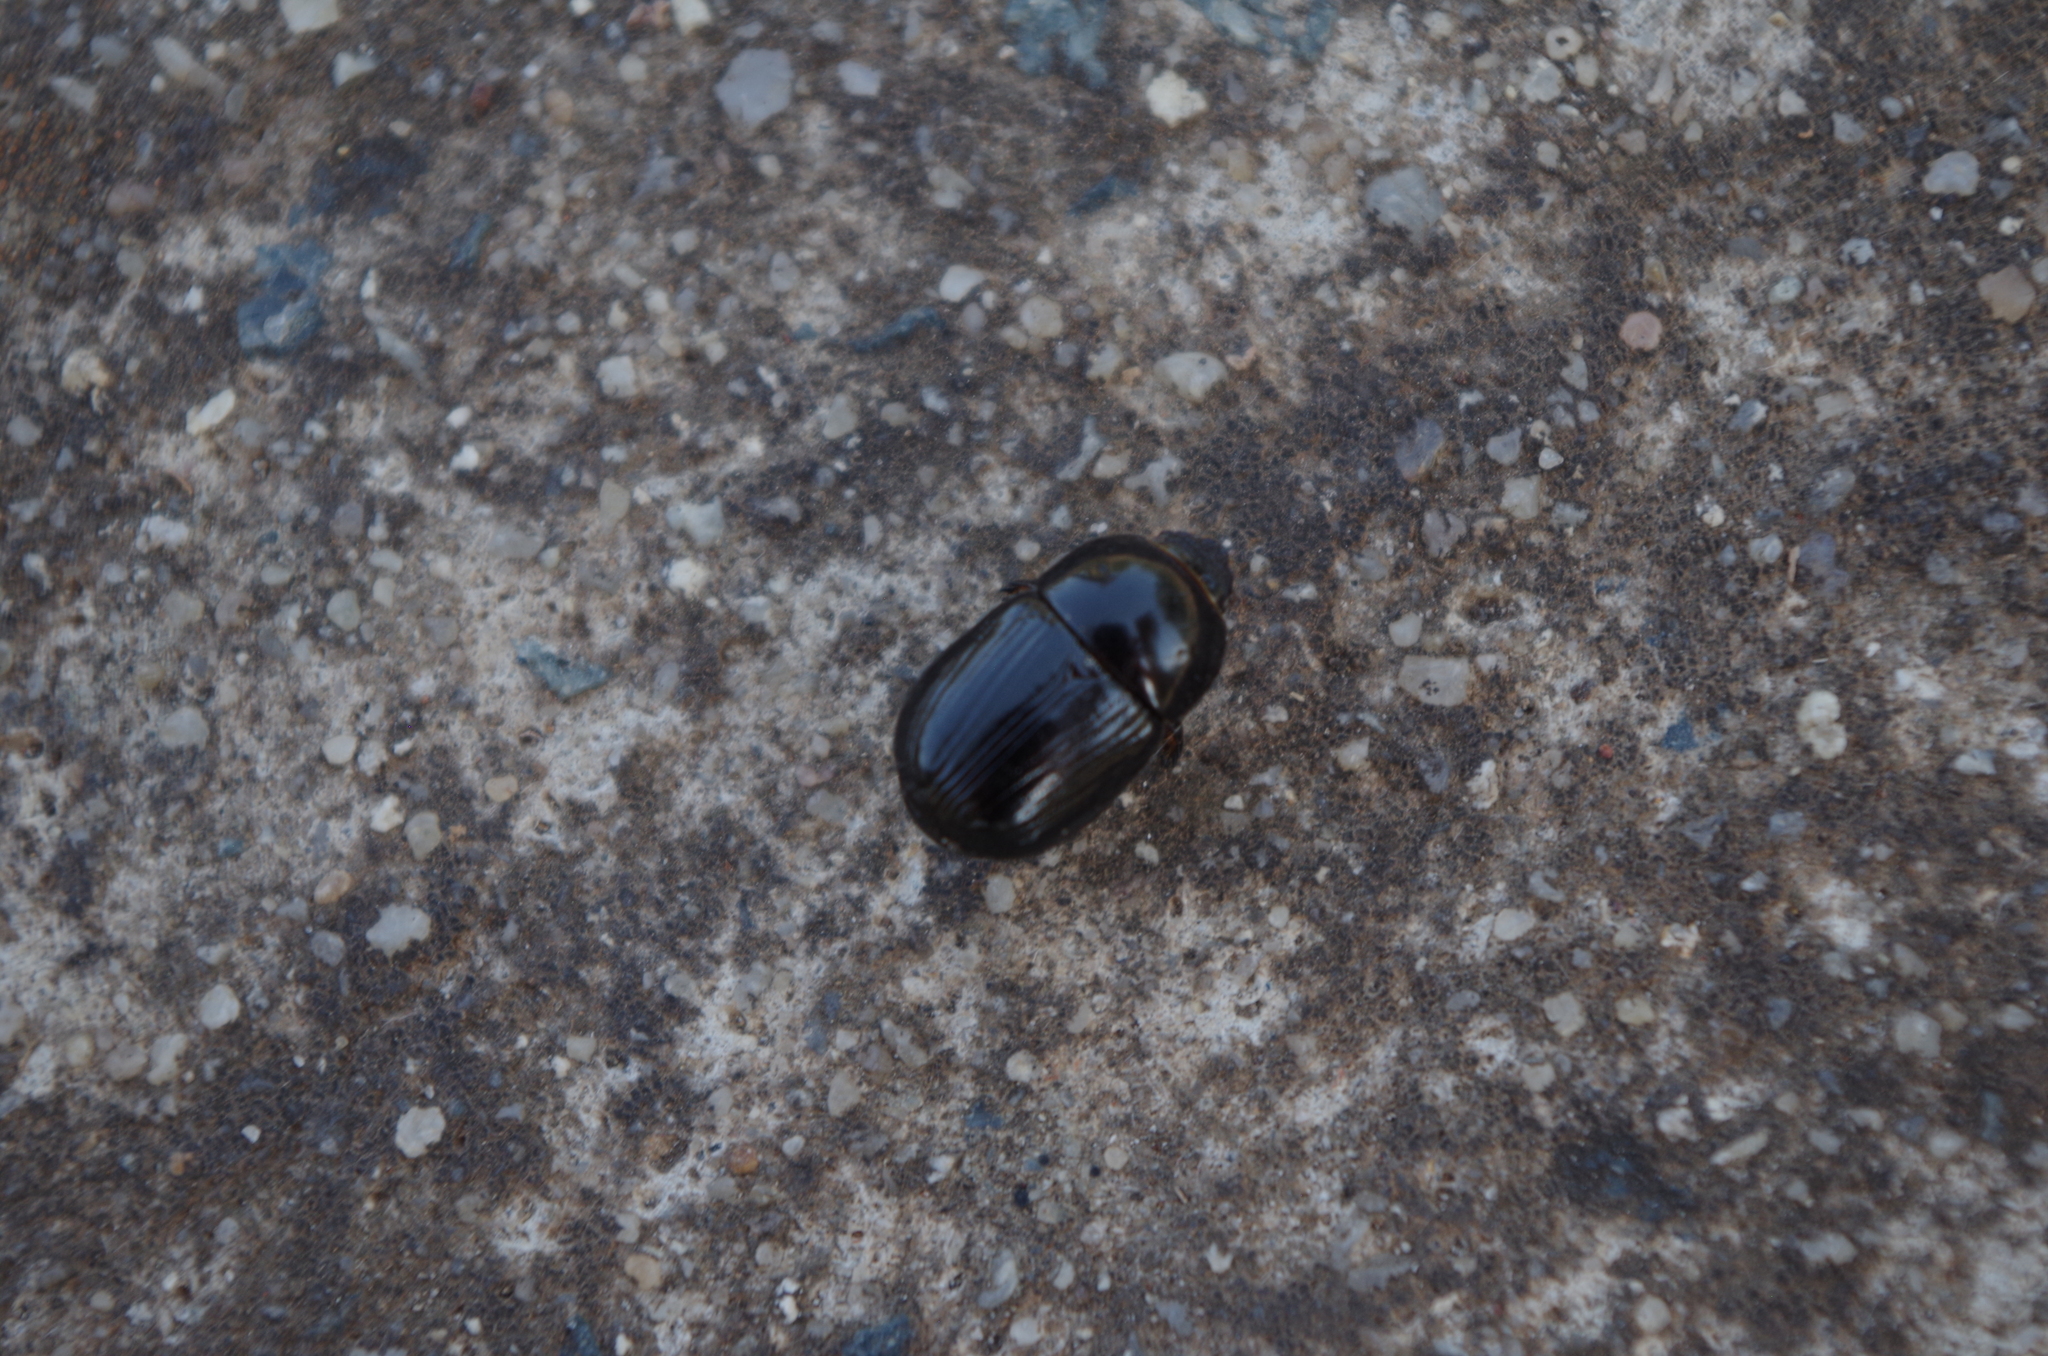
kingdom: Animalia
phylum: Arthropoda
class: Insecta
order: Coleoptera
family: Scarabaeidae
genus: Heteronychus
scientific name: Heteronychus arator
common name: African black beetle
